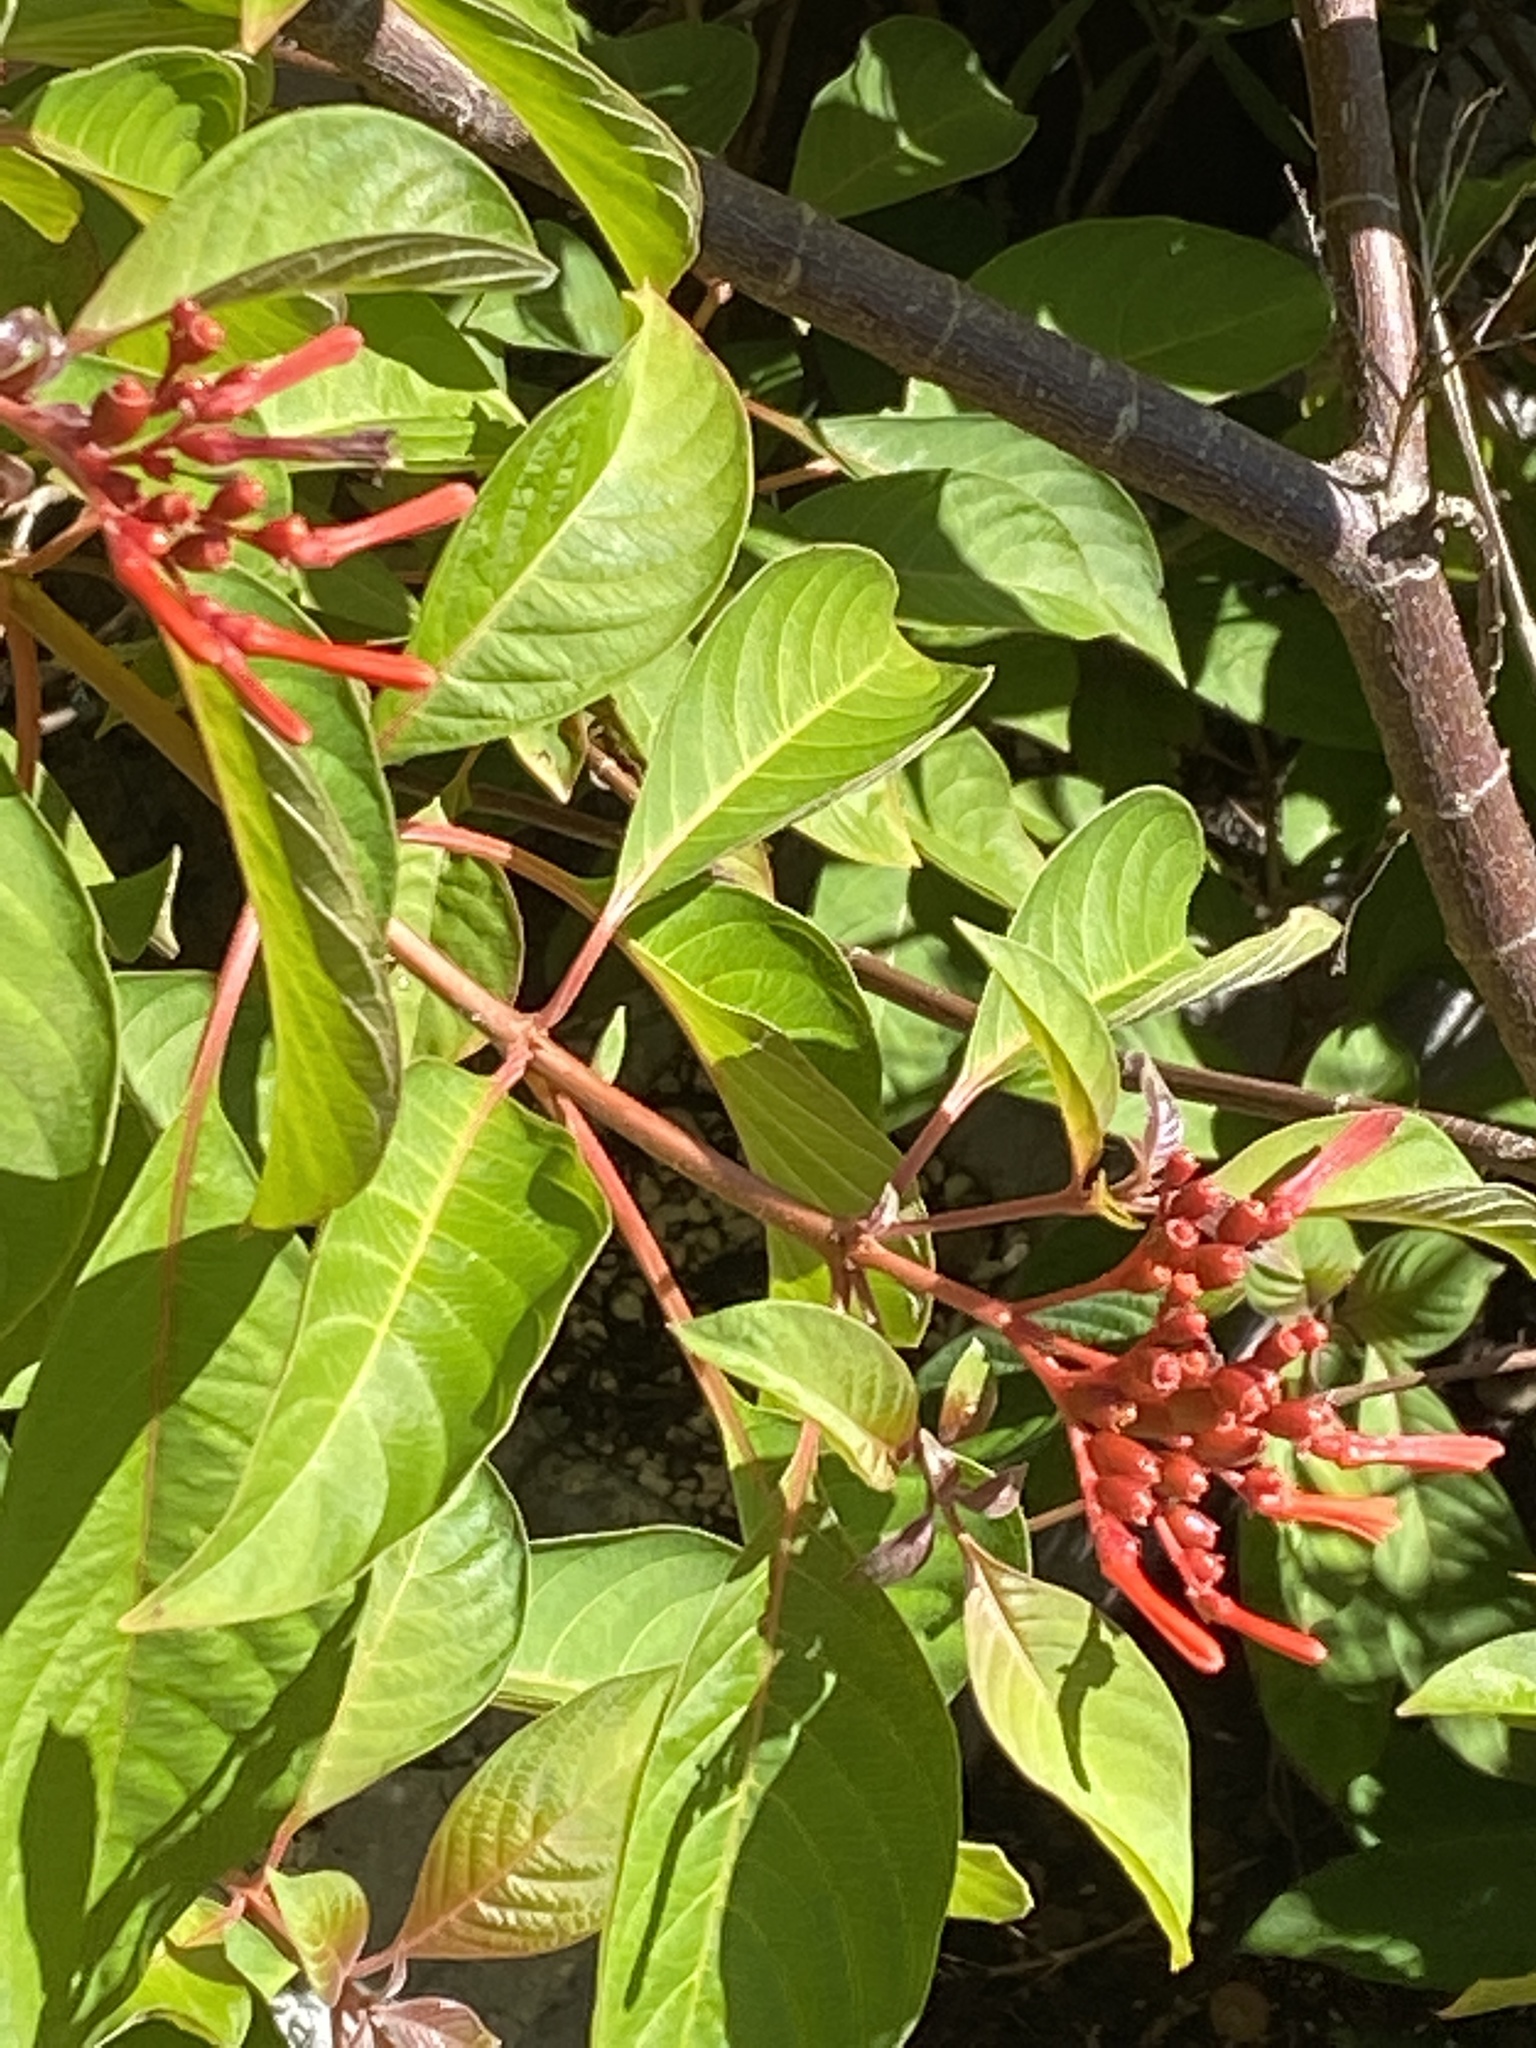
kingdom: Plantae
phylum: Tracheophyta
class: Magnoliopsida
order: Gentianales
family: Rubiaceae
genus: Hamelia
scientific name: Hamelia patens
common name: Redhead
